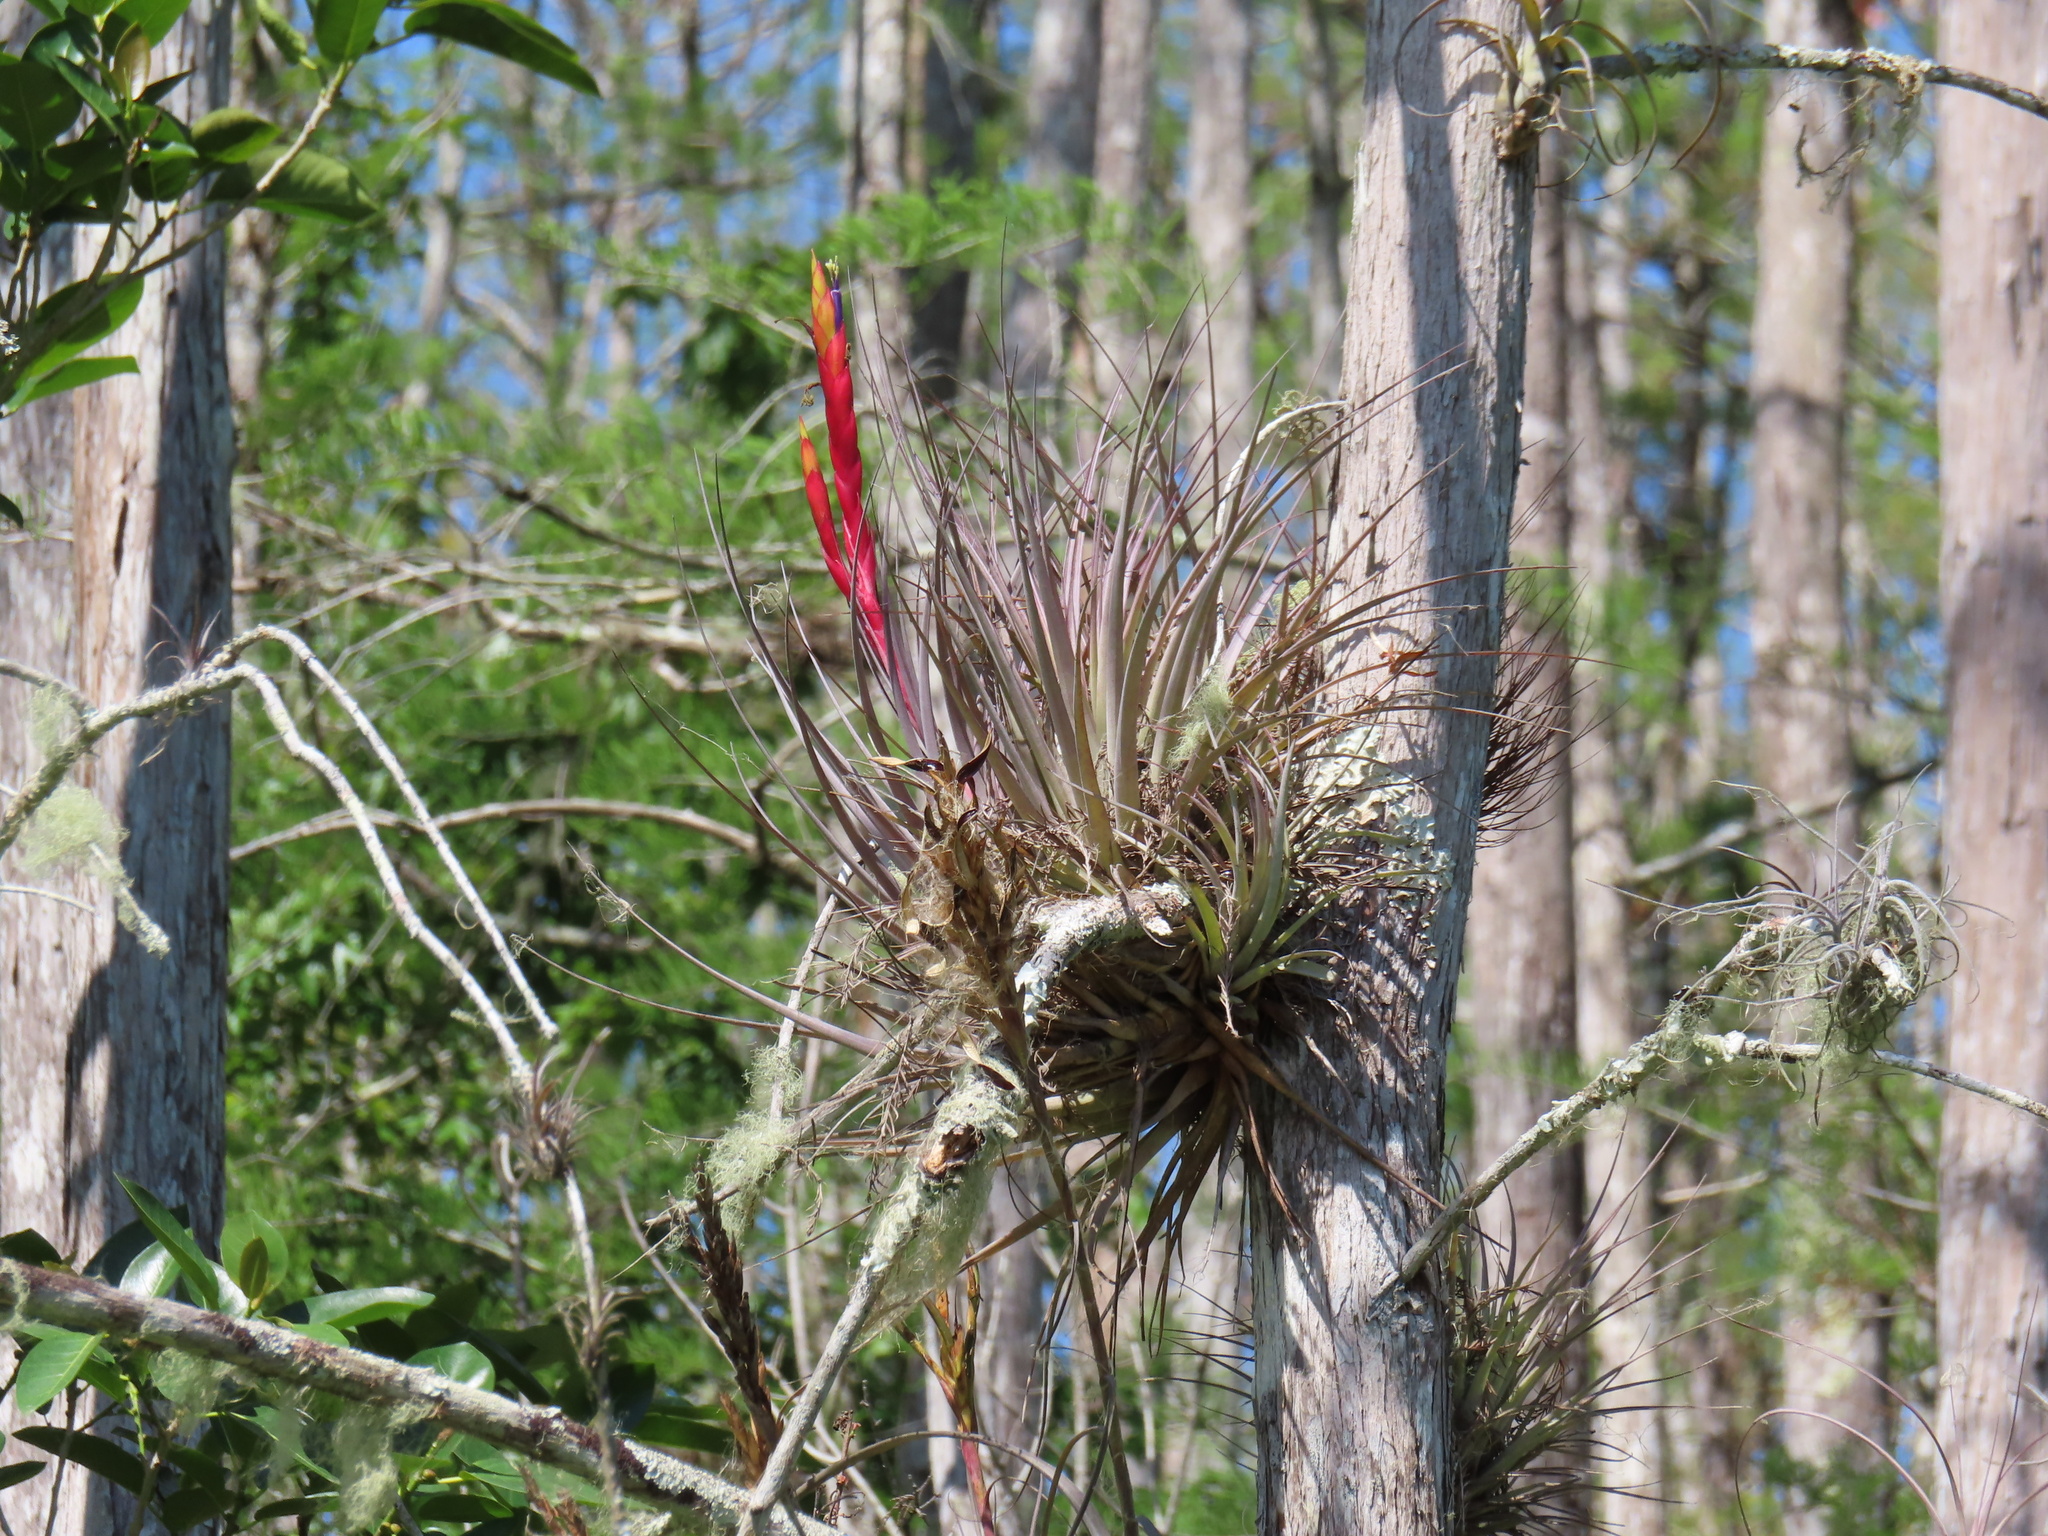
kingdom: Plantae
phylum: Tracheophyta
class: Liliopsida
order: Poales
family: Bromeliaceae
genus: Tillandsia
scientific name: Tillandsia fasciculata
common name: Giant airplant
